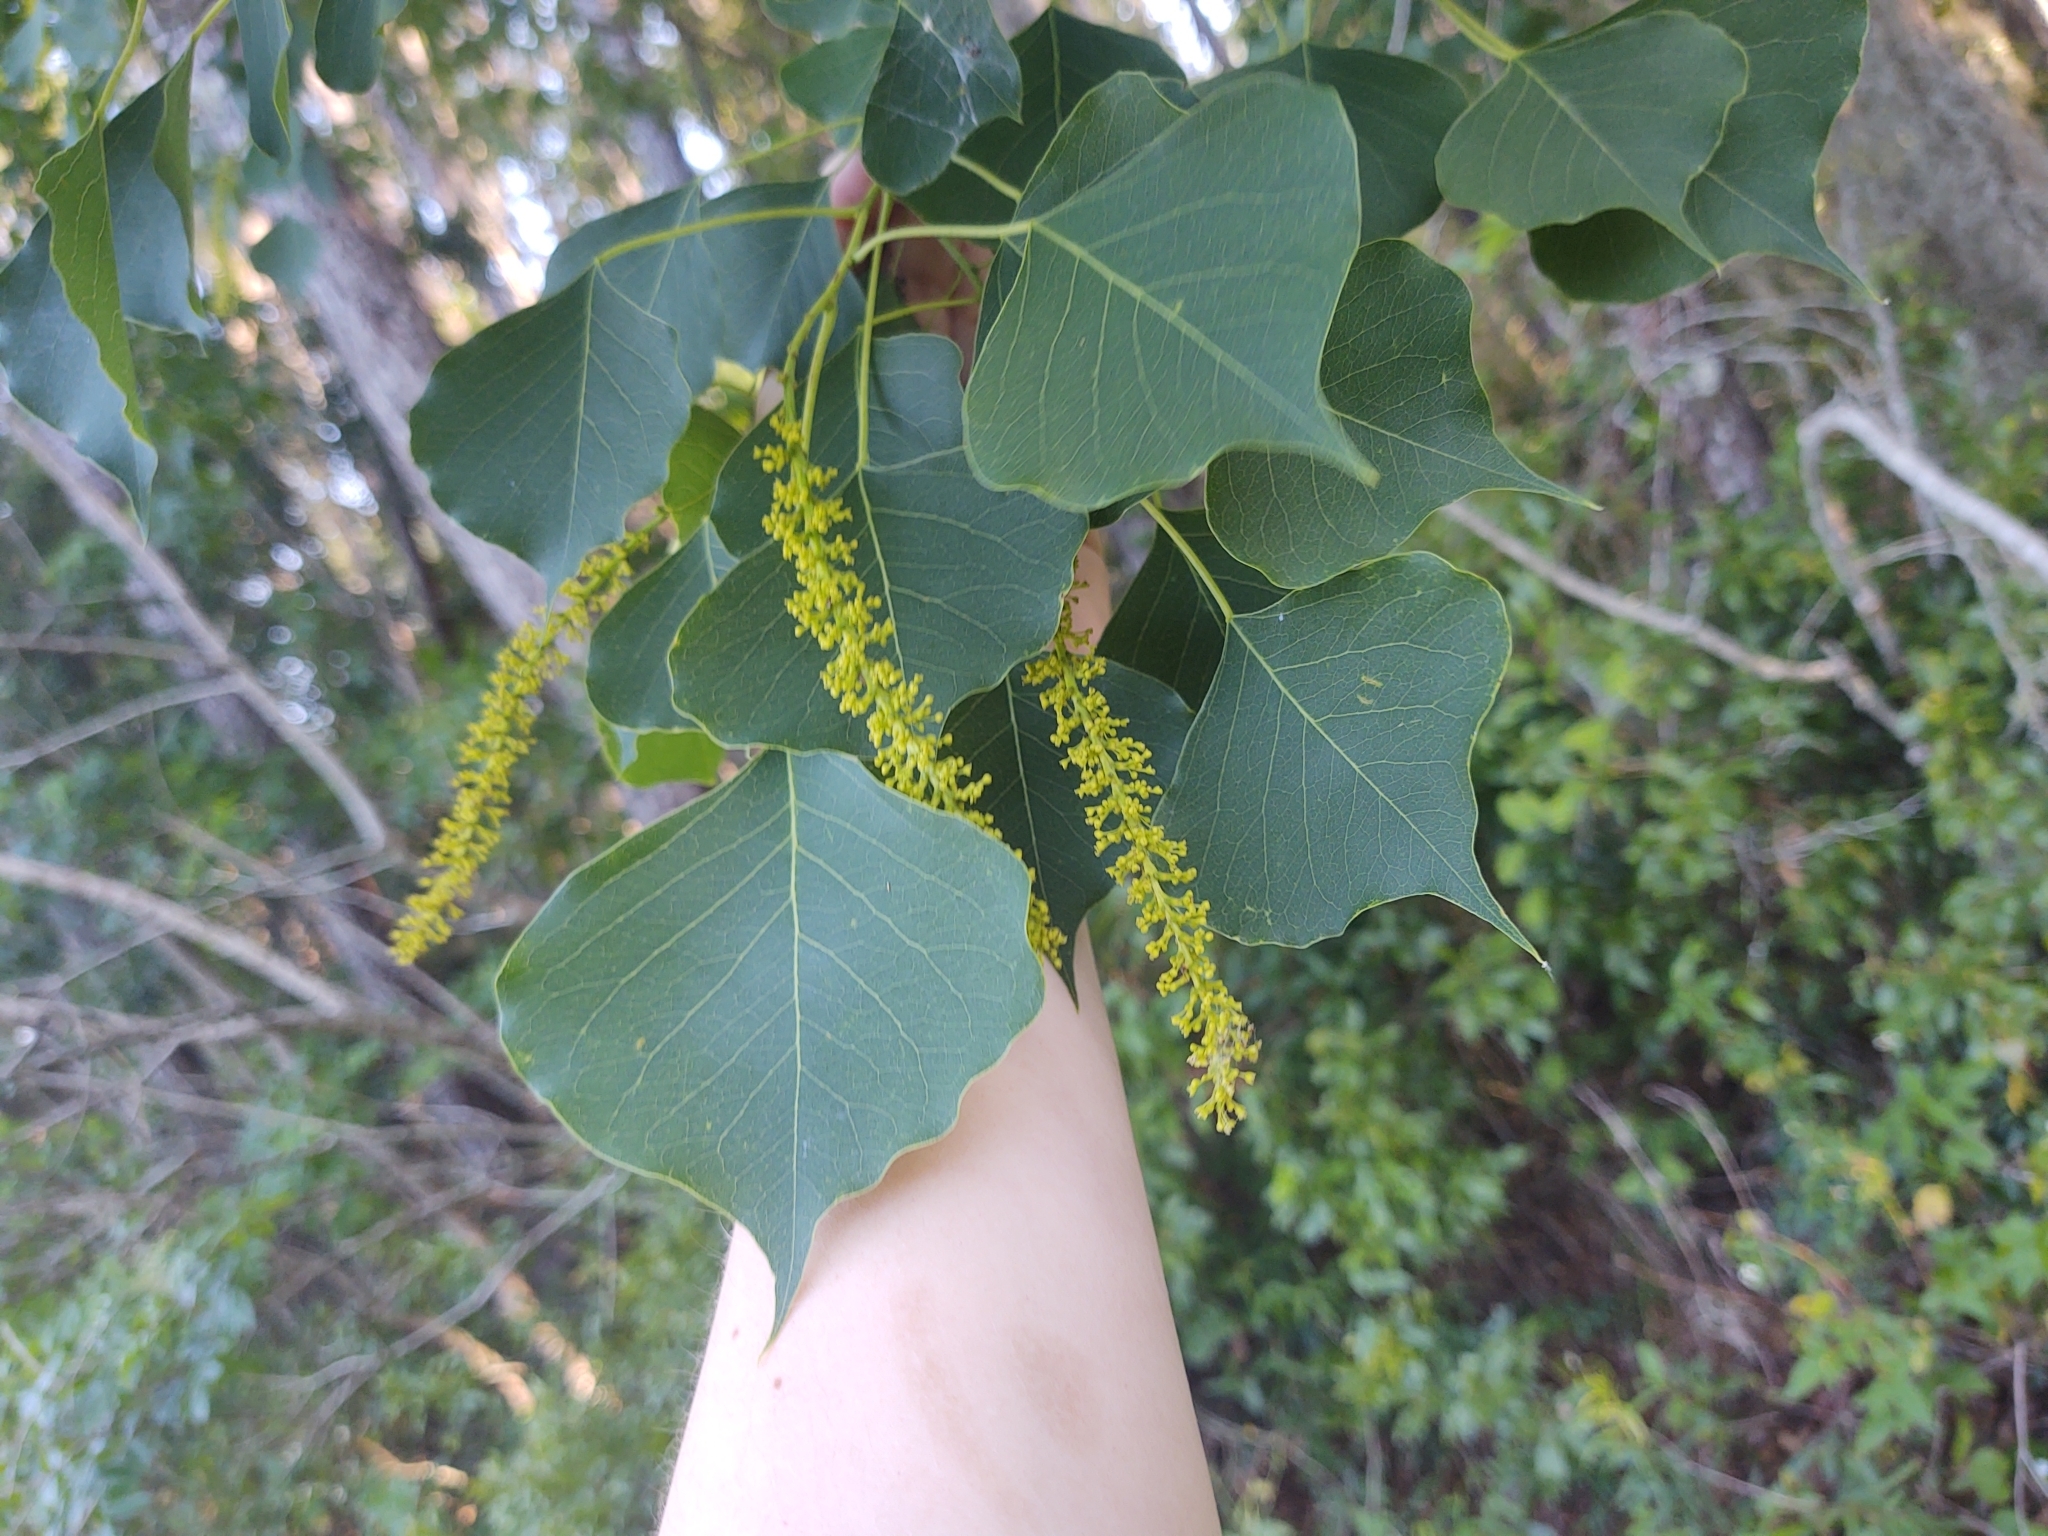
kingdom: Plantae
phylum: Tracheophyta
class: Magnoliopsida
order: Malpighiales
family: Euphorbiaceae
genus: Triadica
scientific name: Triadica sebifera
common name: Chinese tallow
